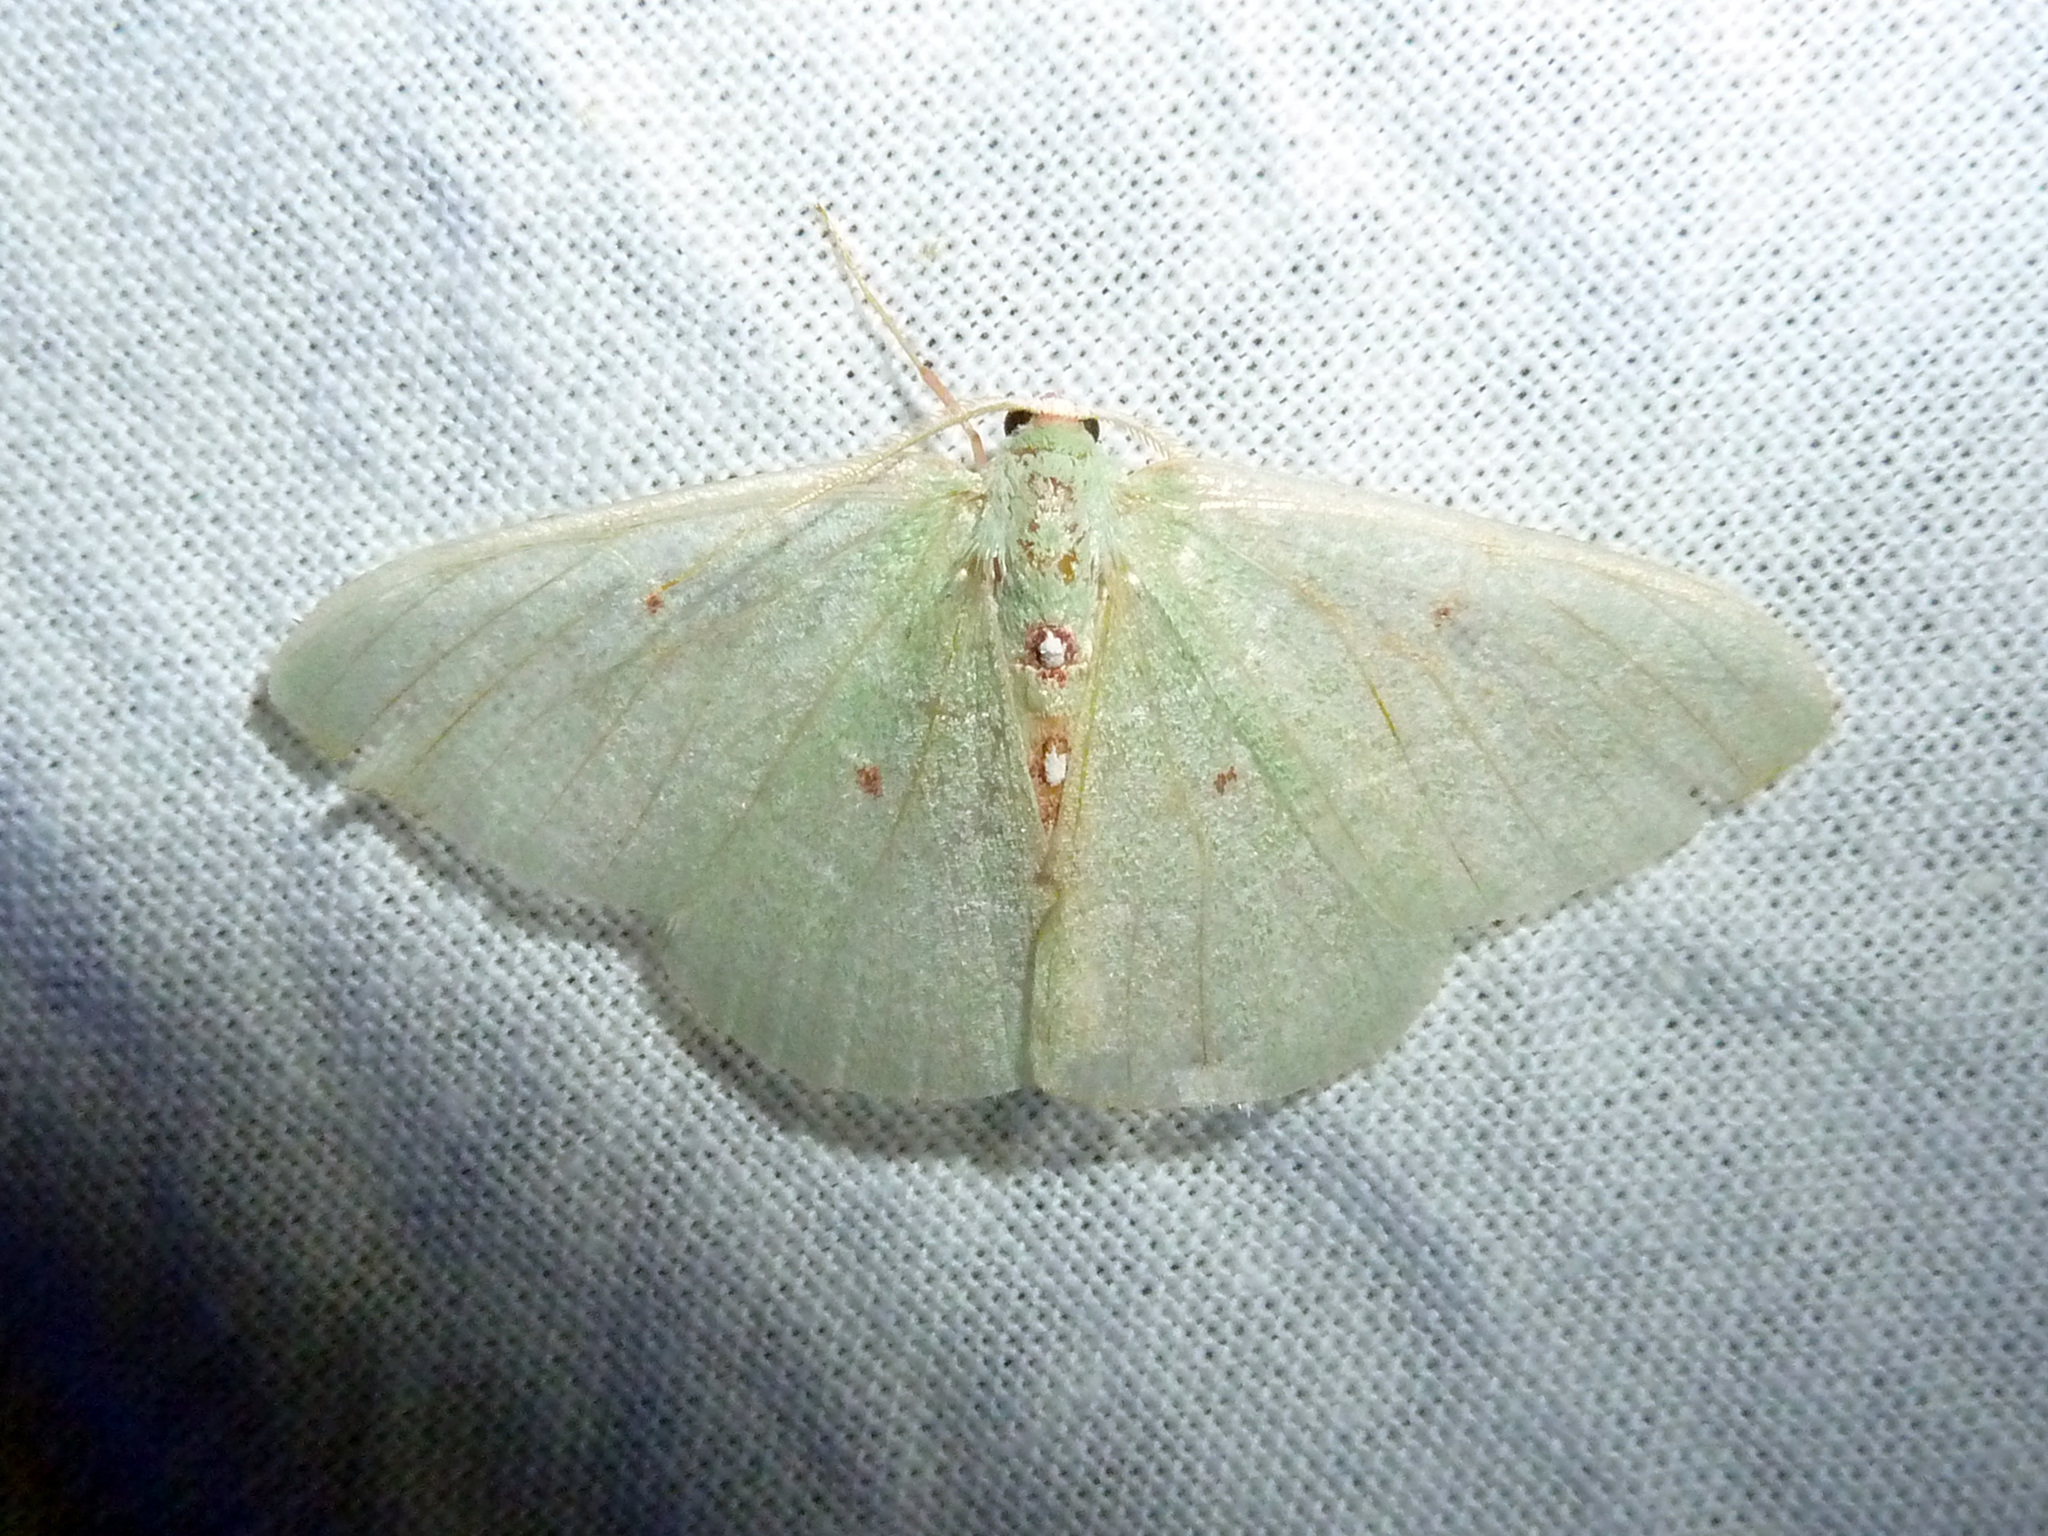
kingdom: Animalia
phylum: Arthropoda
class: Insecta
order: Lepidoptera
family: Geometridae
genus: Nemoria
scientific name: Nemoria darwiniata
